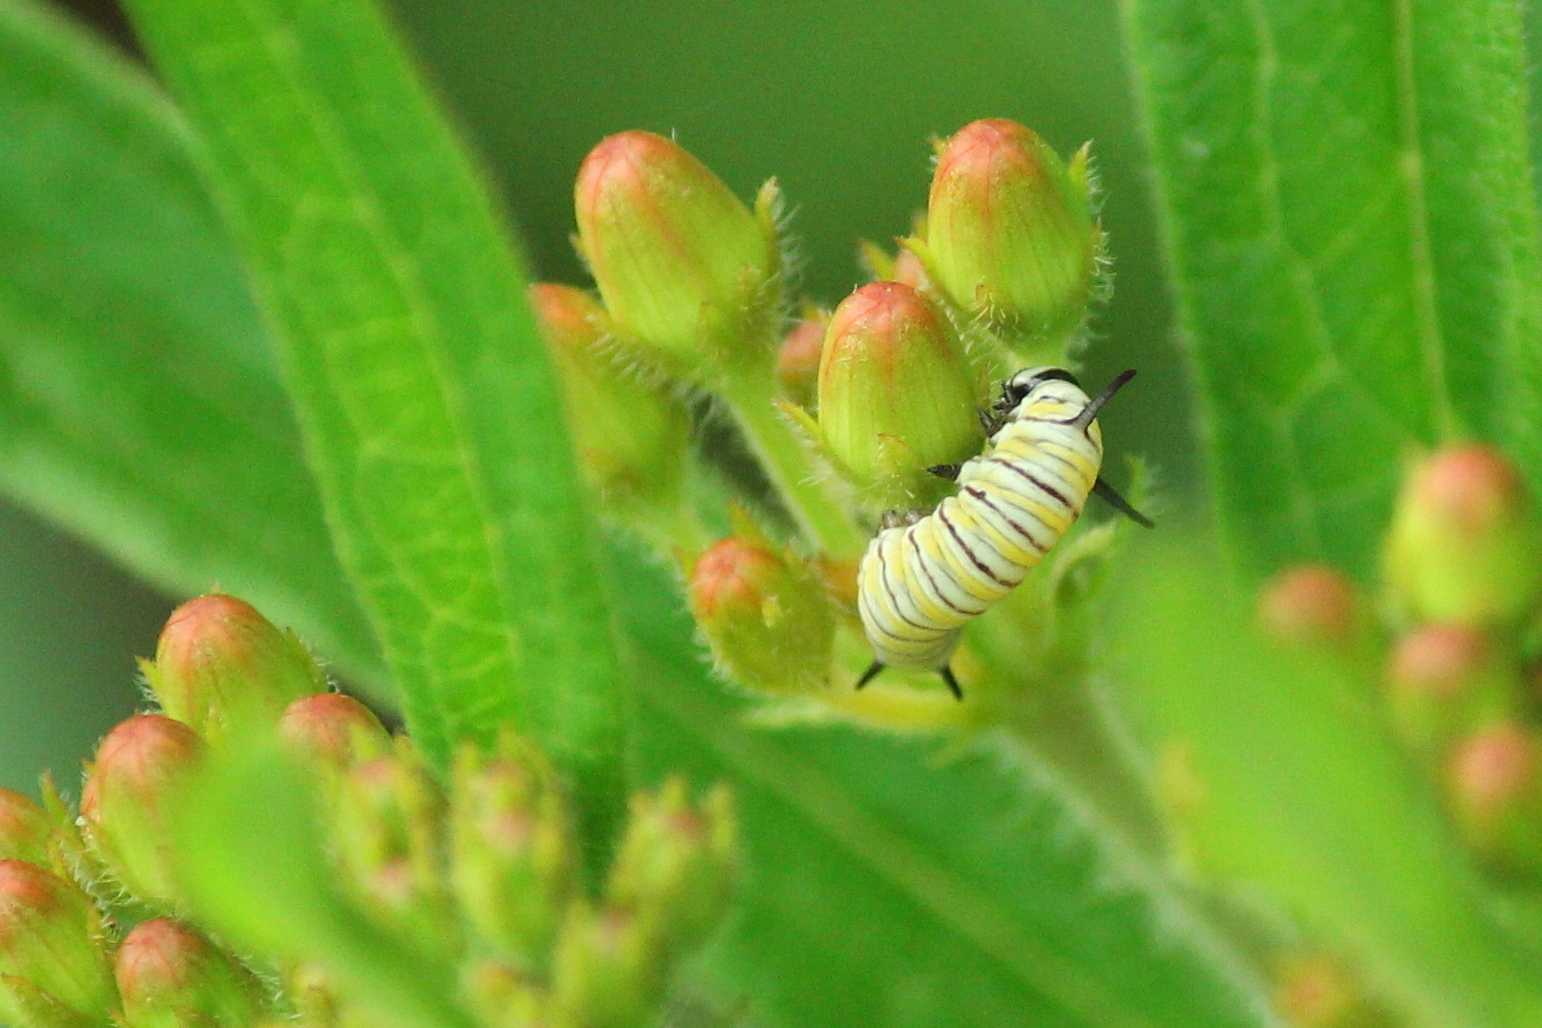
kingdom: Animalia
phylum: Arthropoda
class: Insecta
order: Lepidoptera
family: Nymphalidae
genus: Danaus
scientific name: Danaus plexippus
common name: Monarch
